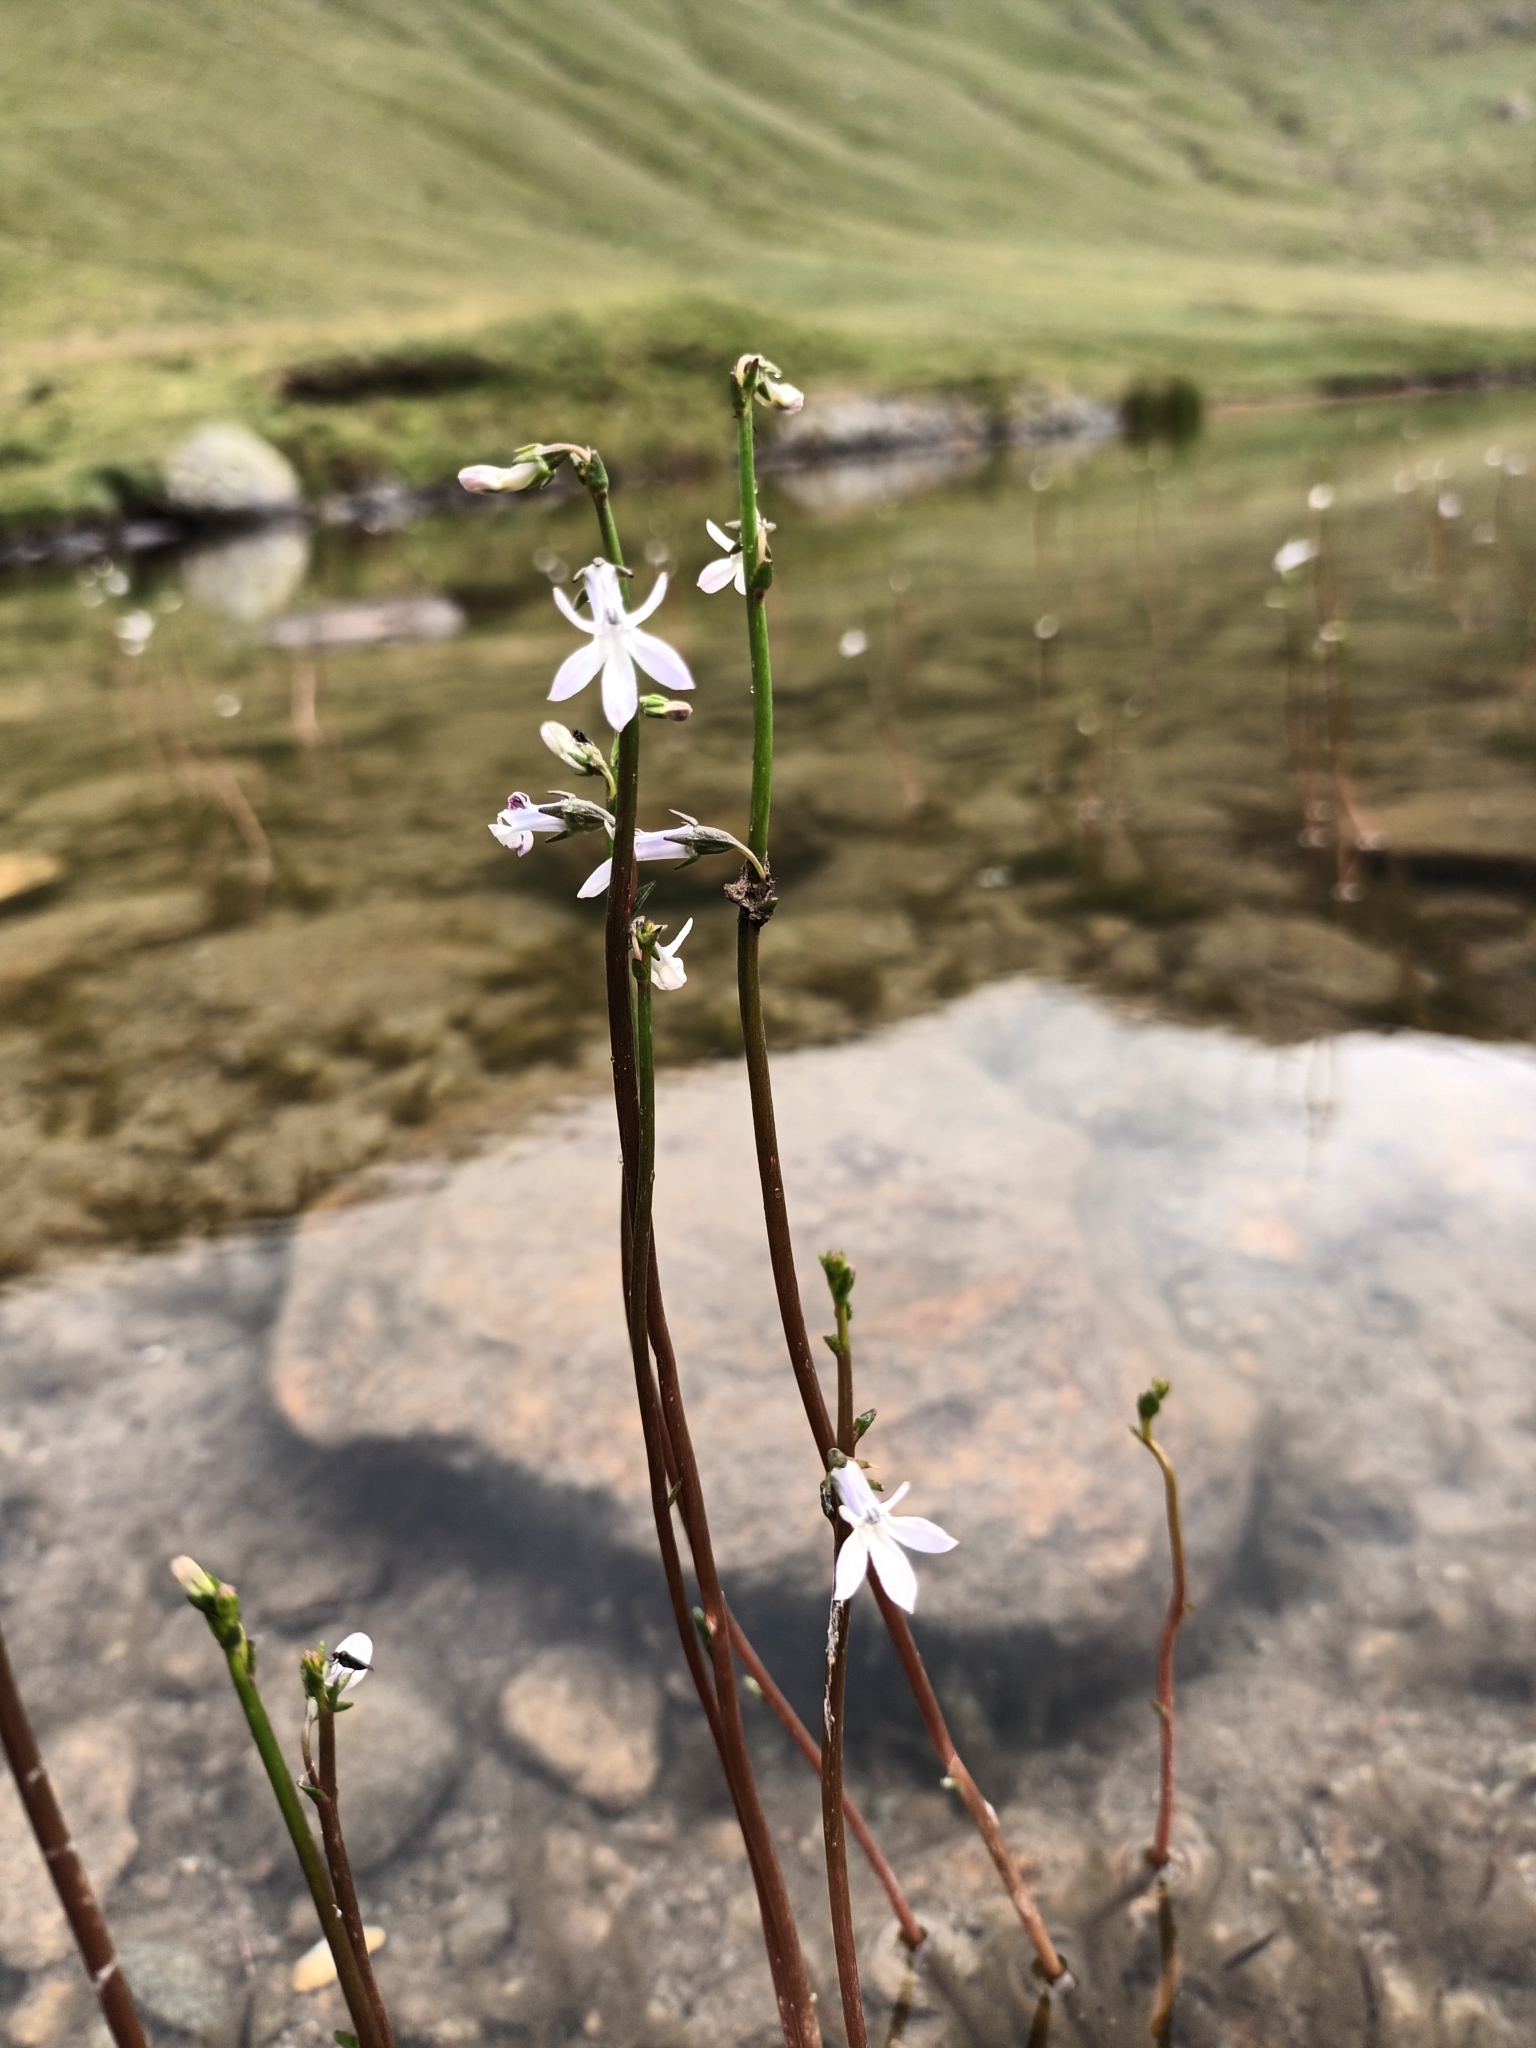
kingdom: Plantae
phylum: Tracheophyta
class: Magnoliopsida
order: Asterales
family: Campanulaceae
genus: Lobelia
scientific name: Lobelia dortmanna
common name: Water lobelia
